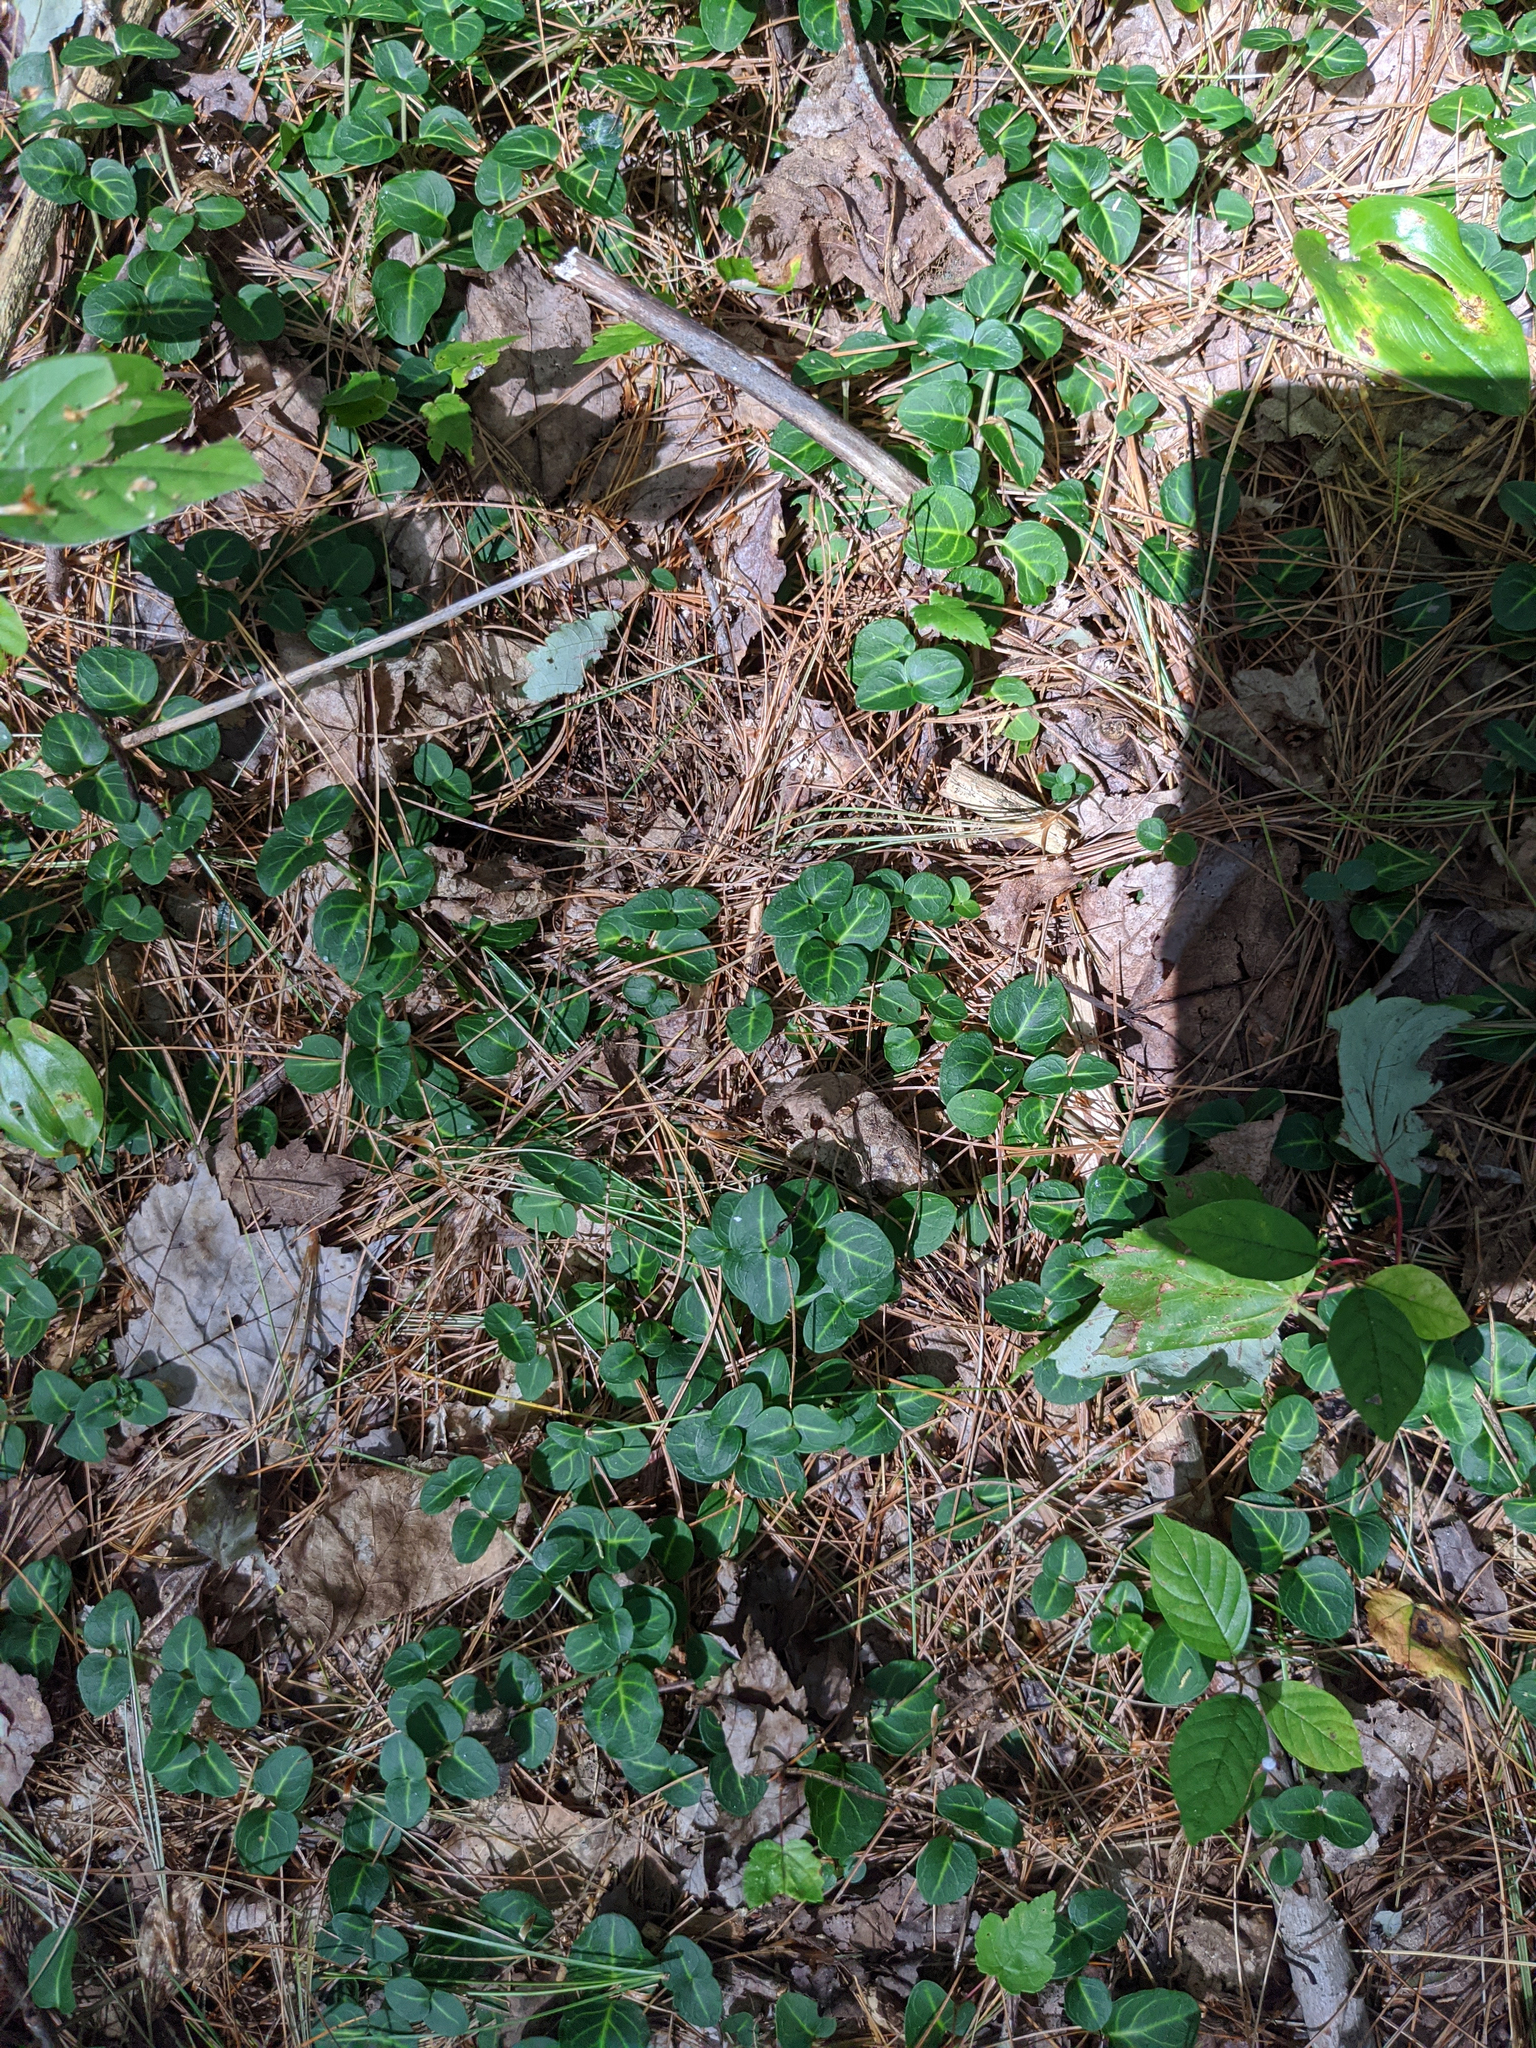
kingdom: Plantae
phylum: Tracheophyta
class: Magnoliopsida
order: Gentianales
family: Rubiaceae
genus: Mitchella
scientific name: Mitchella repens
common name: Partridge-berry
